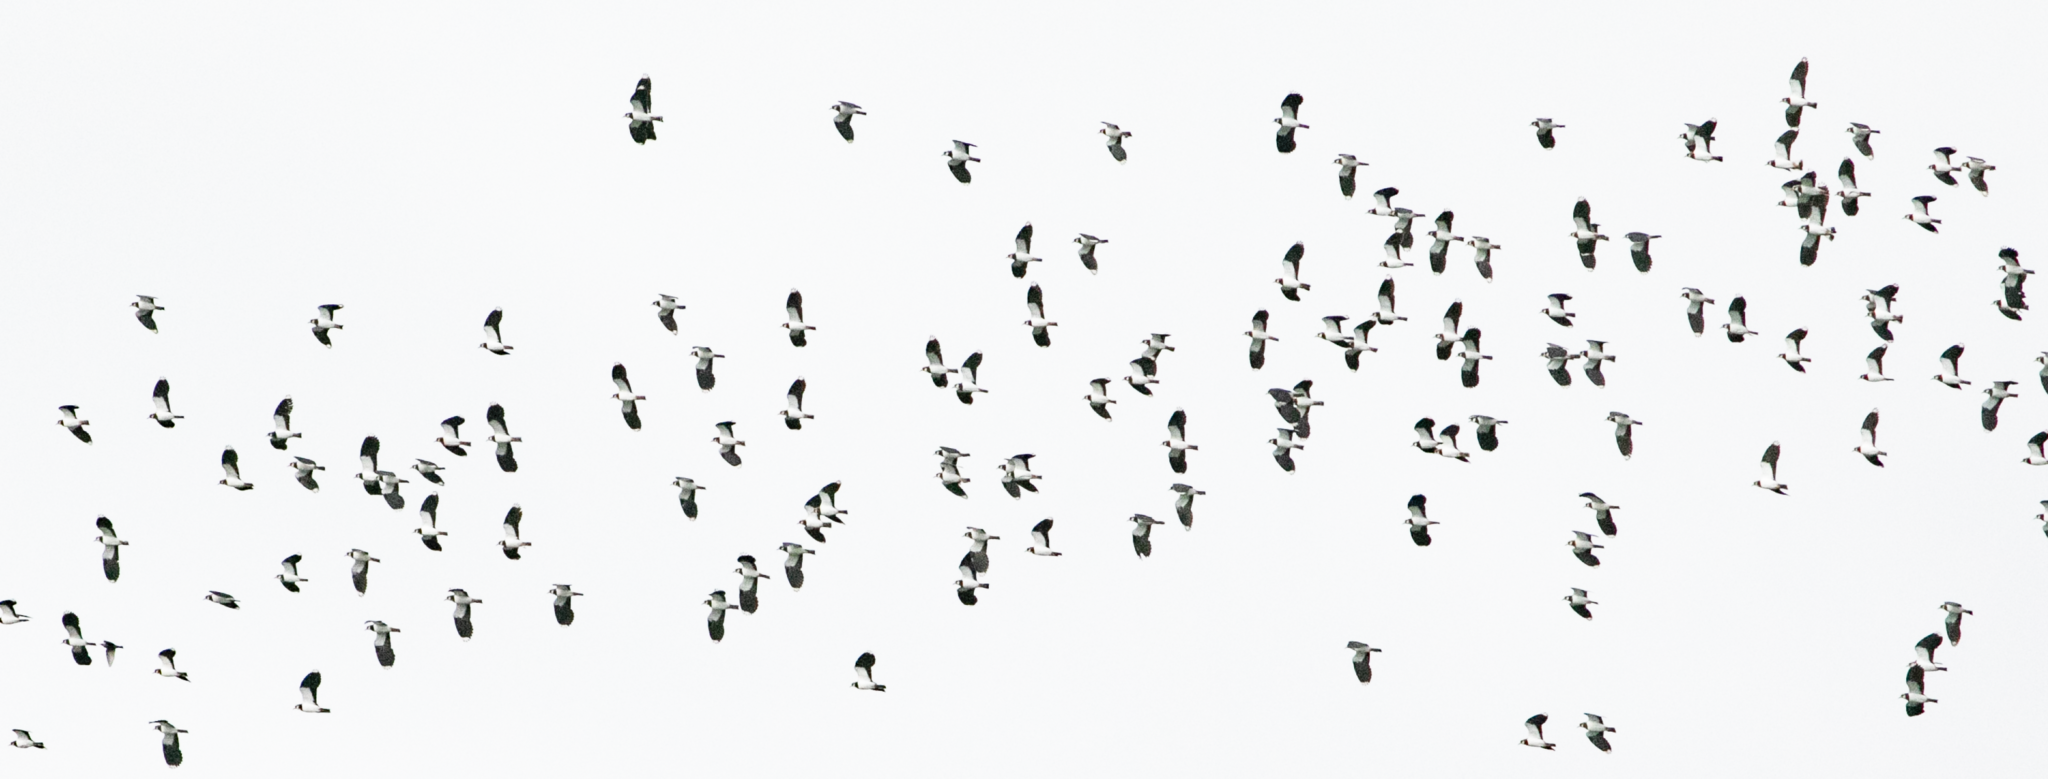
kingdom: Animalia
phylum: Chordata
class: Aves
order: Charadriiformes
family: Charadriidae
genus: Vanellus
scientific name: Vanellus vanellus
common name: Northern lapwing
